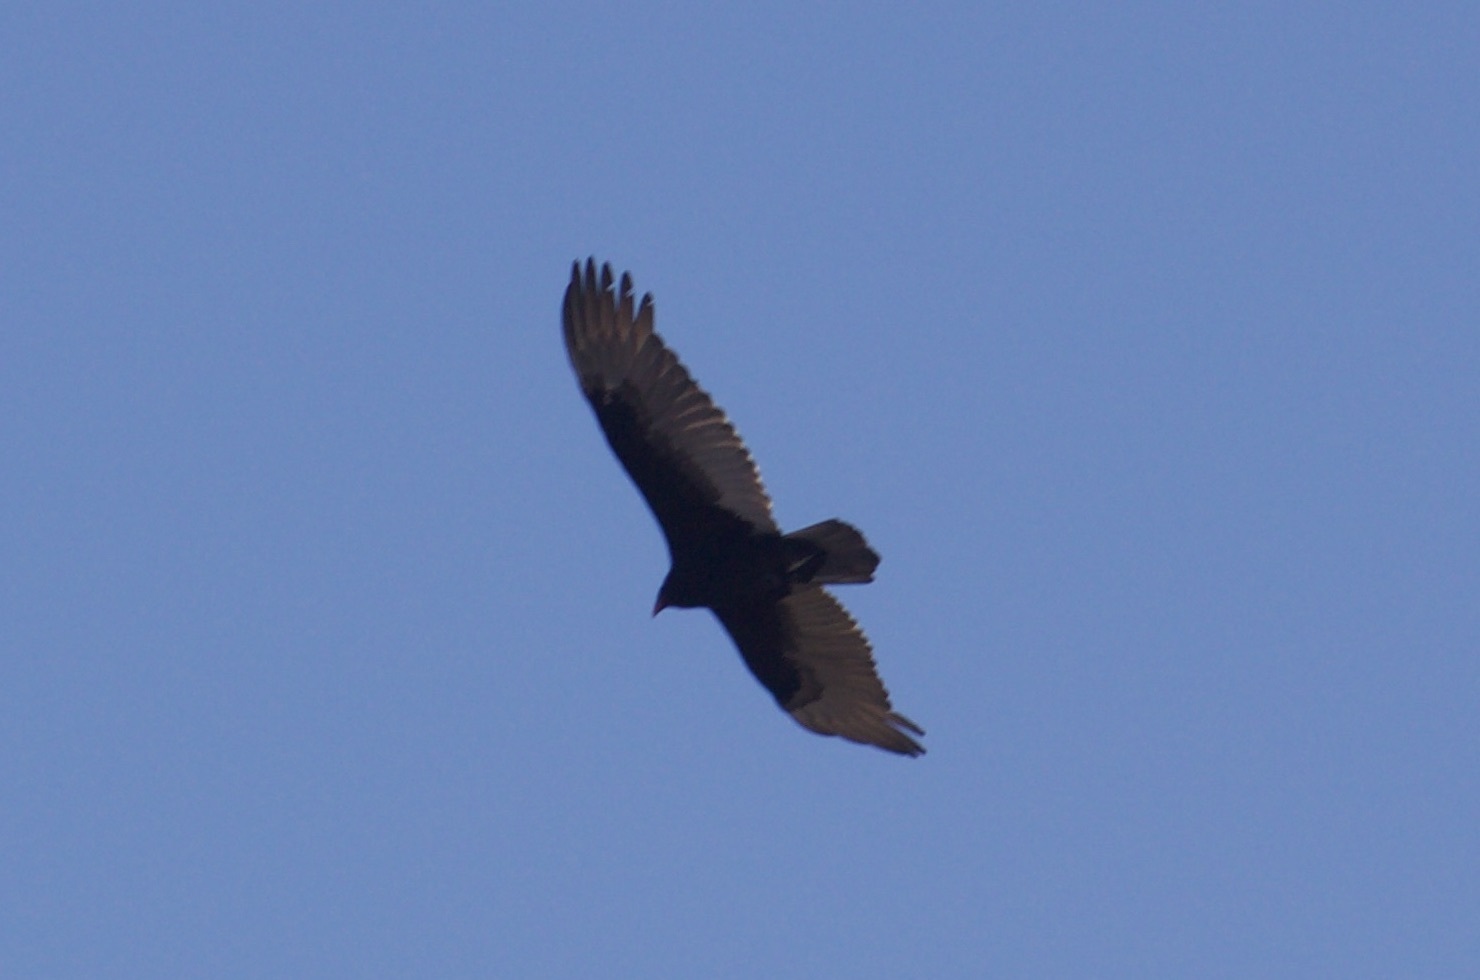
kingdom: Animalia
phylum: Chordata
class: Aves
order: Accipitriformes
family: Cathartidae
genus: Cathartes
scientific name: Cathartes aura
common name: Turkey vulture
